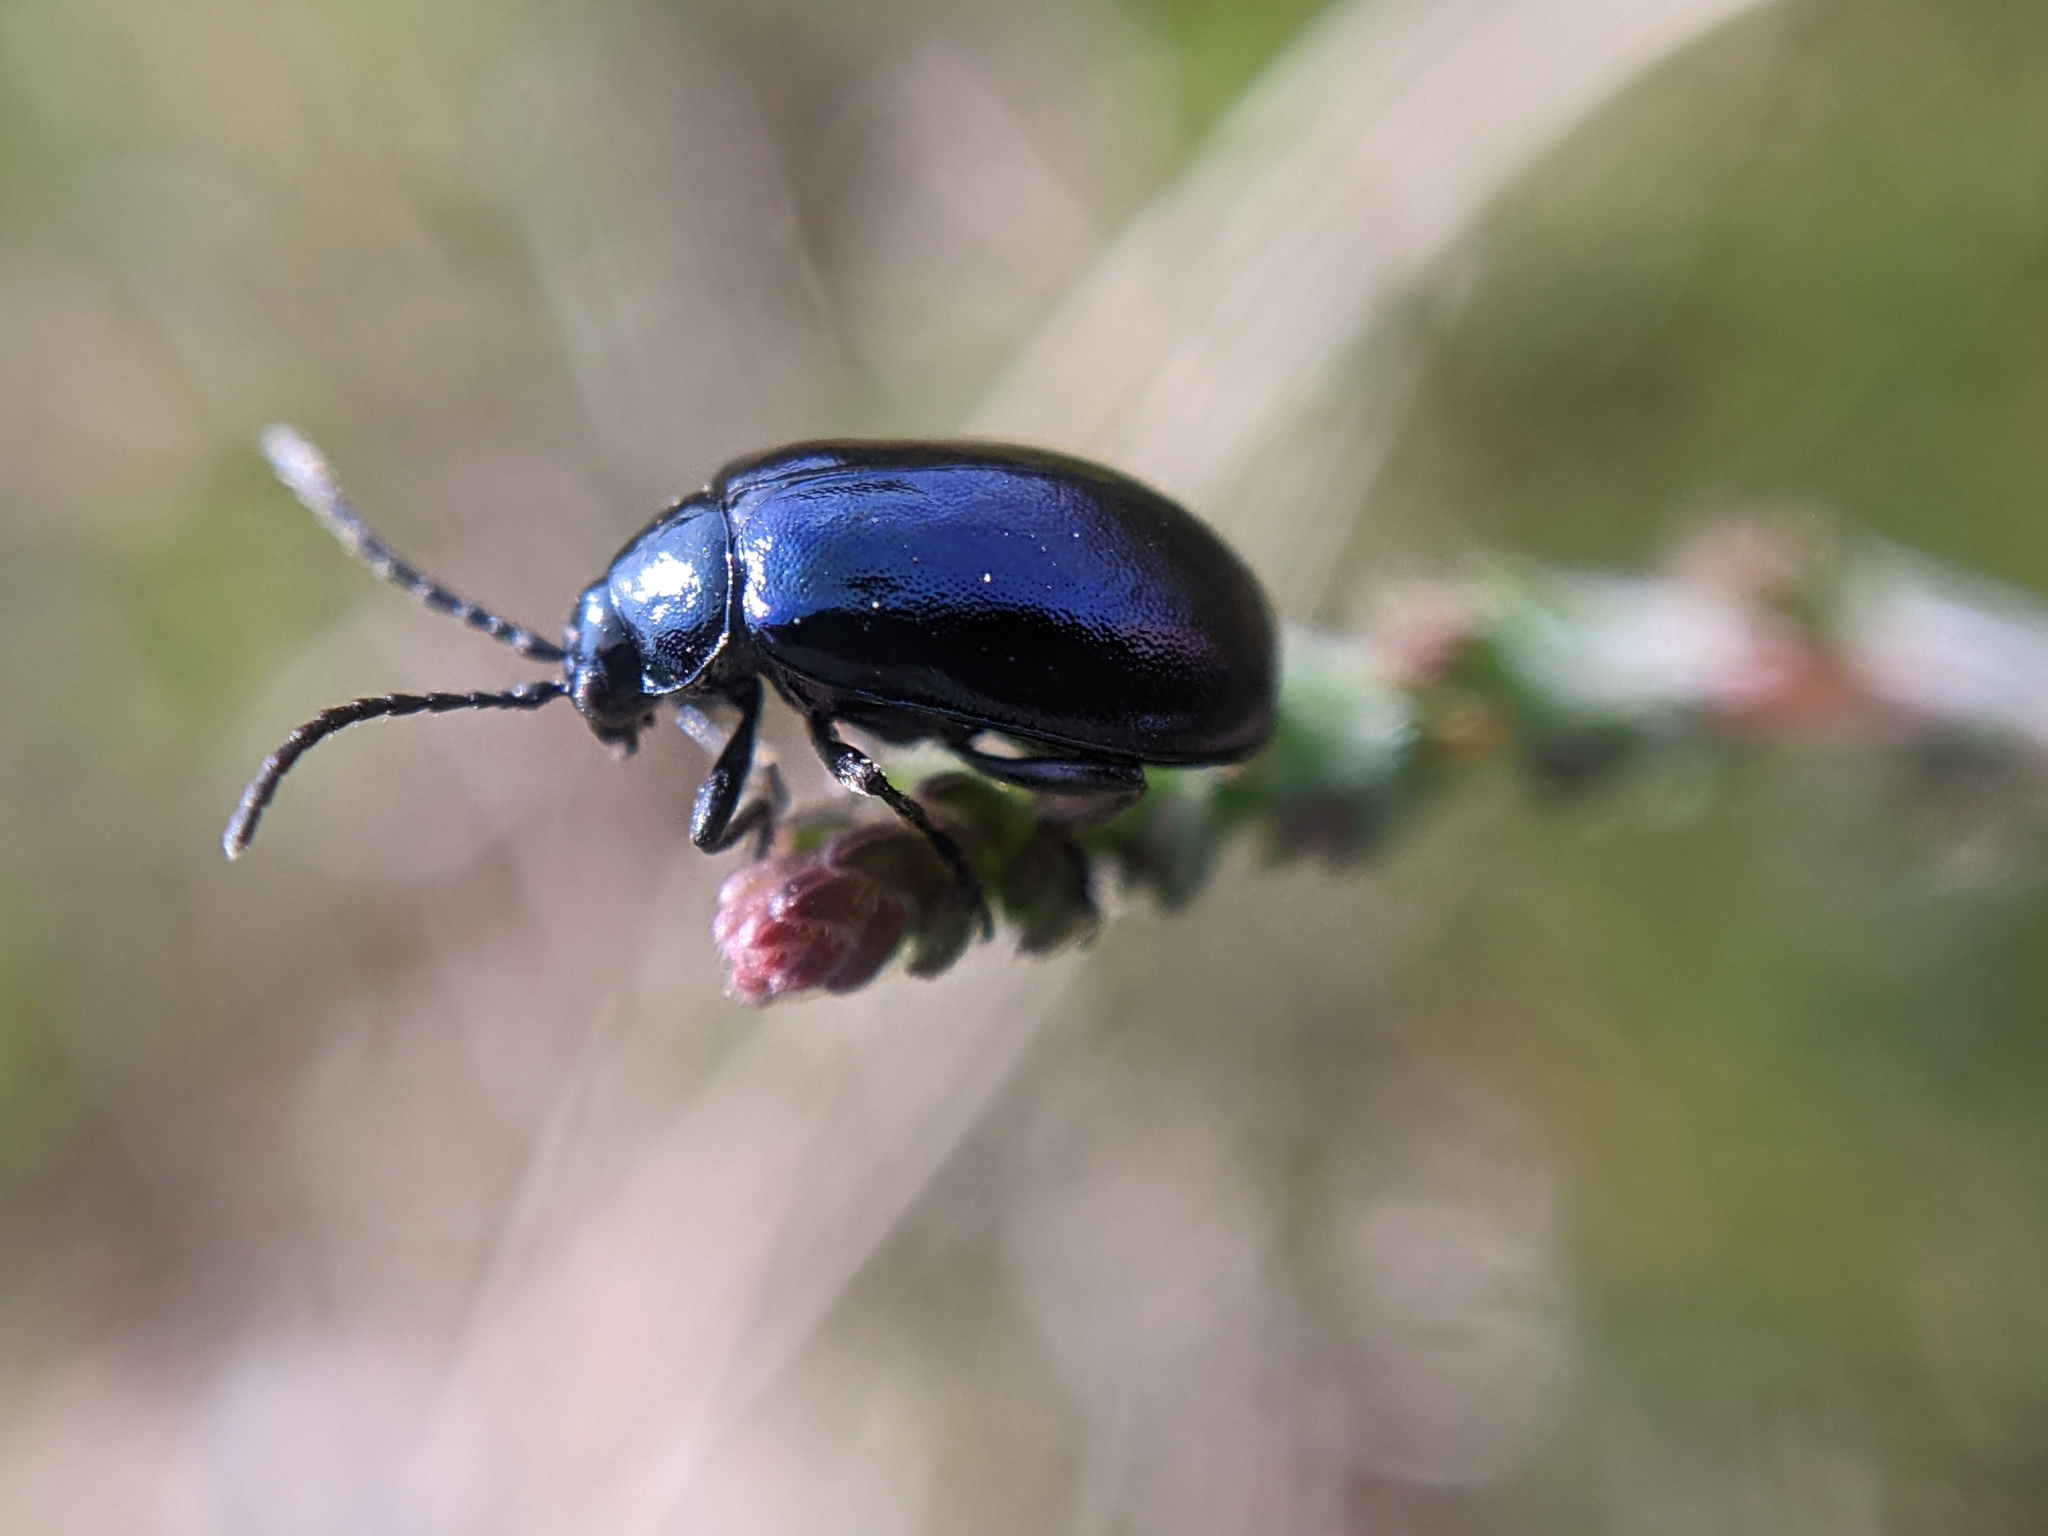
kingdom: Animalia
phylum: Arthropoda
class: Insecta
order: Coleoptera
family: Chrysomelidae
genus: Agelastica
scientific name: Agelastica alni
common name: Alder leaf beetle
